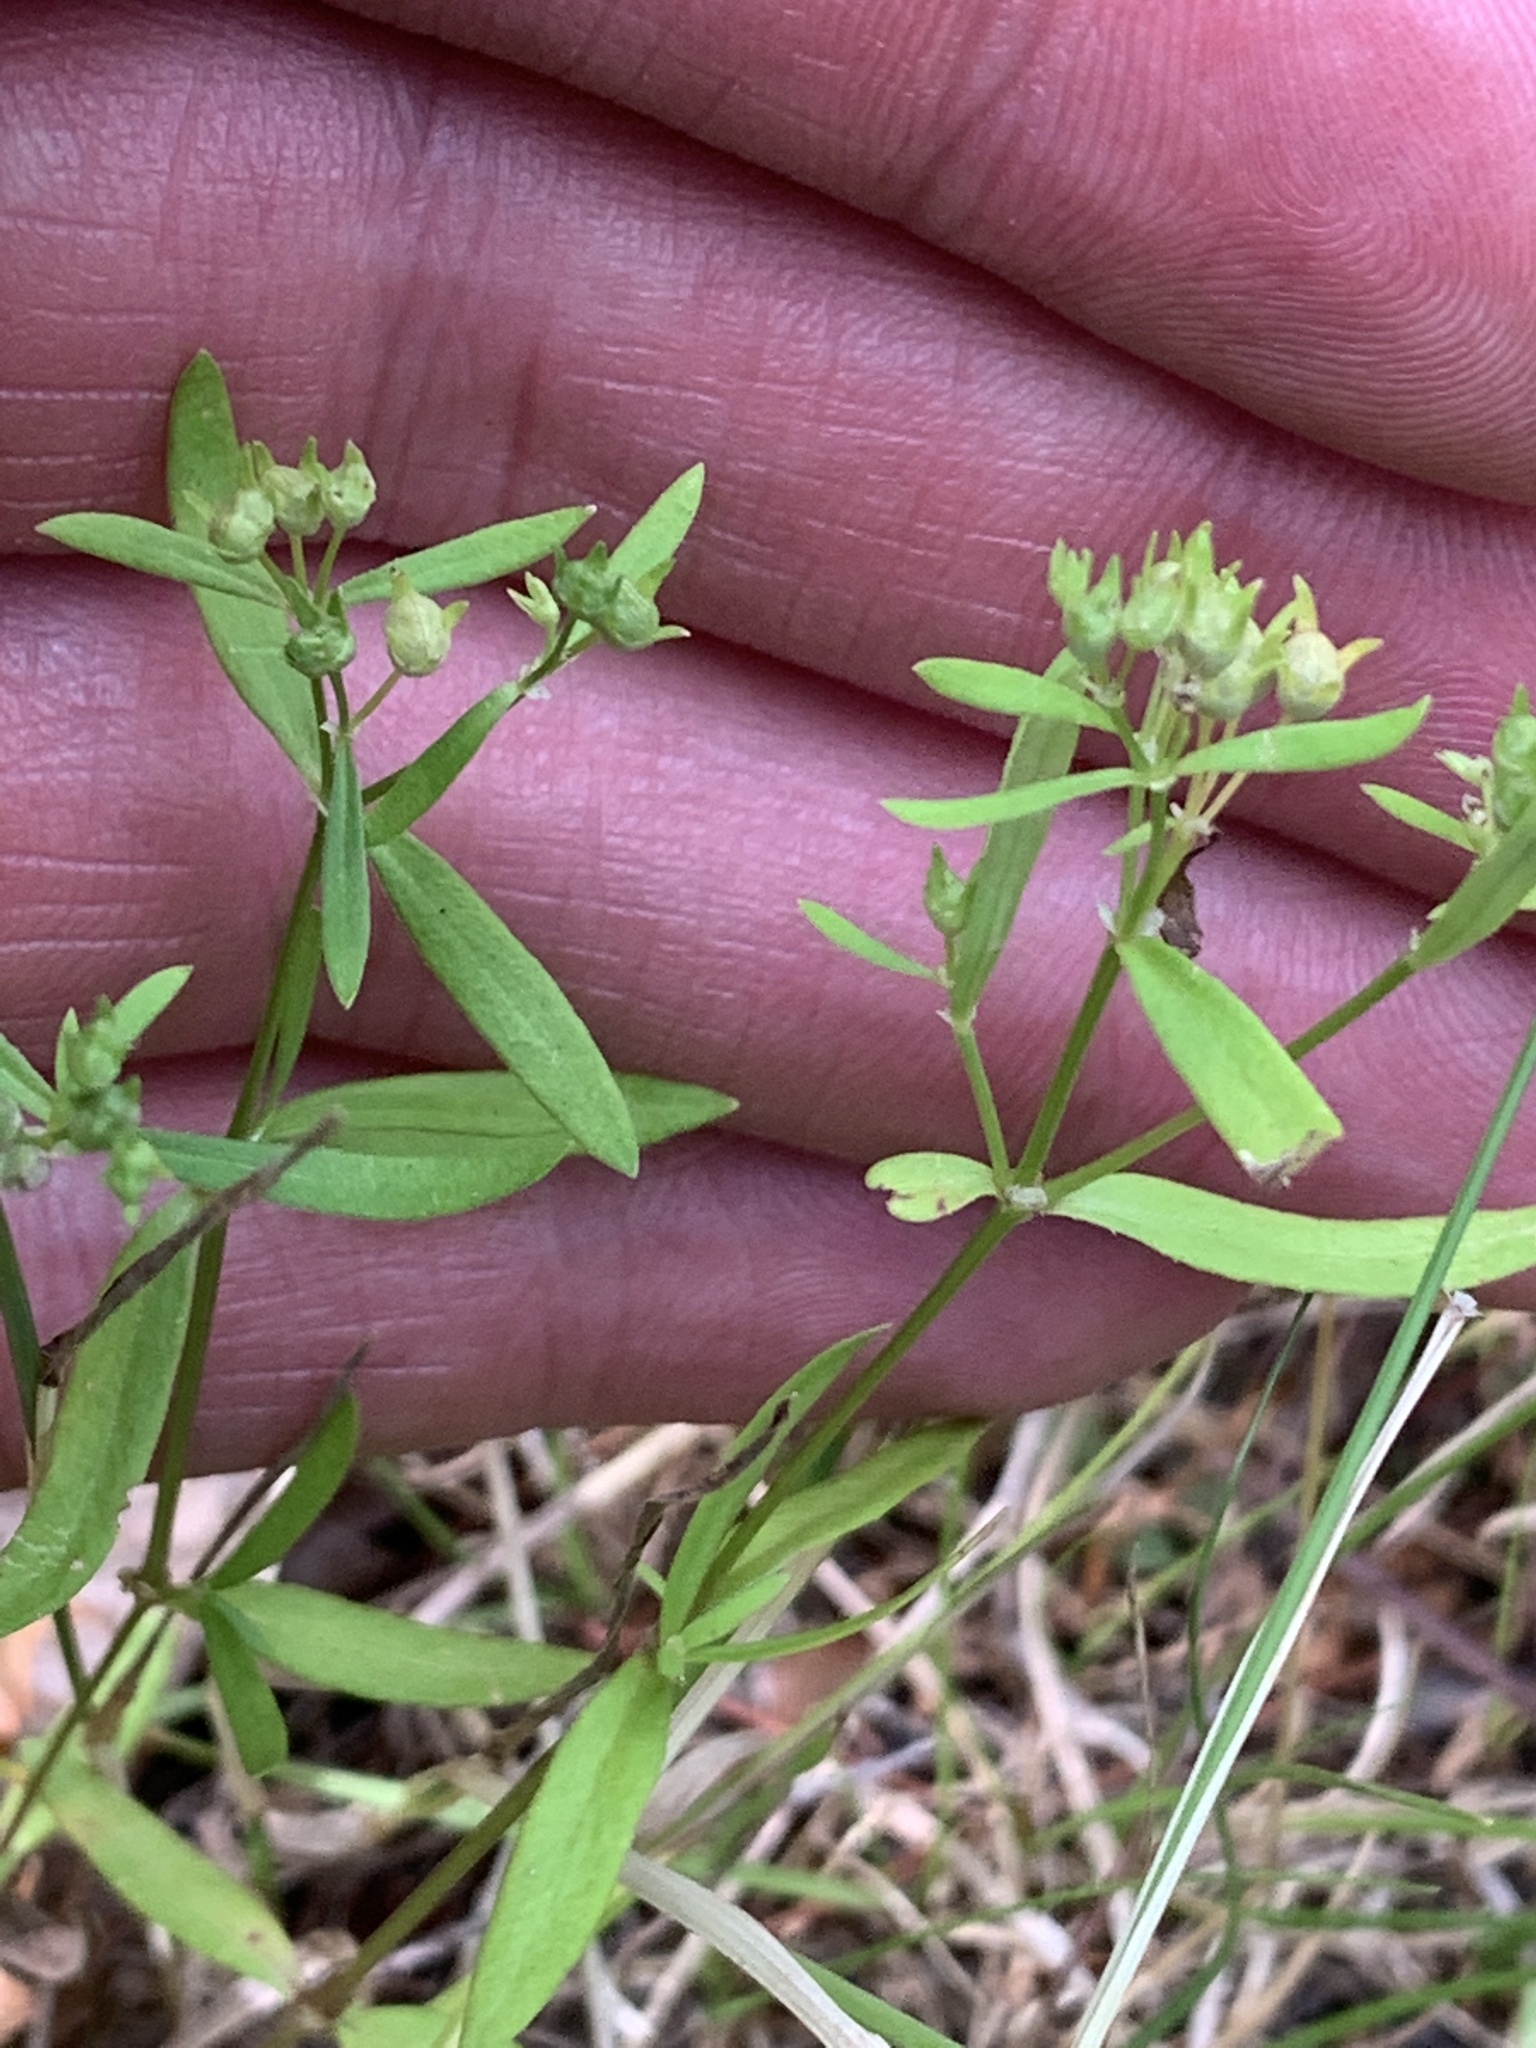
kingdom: Plantae
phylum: Tracheophyta
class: Magnoliopsida
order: Gentianales
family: Rubiaceae
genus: Houstonia
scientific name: Houstonia longifolia
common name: Long-leaved bluets
